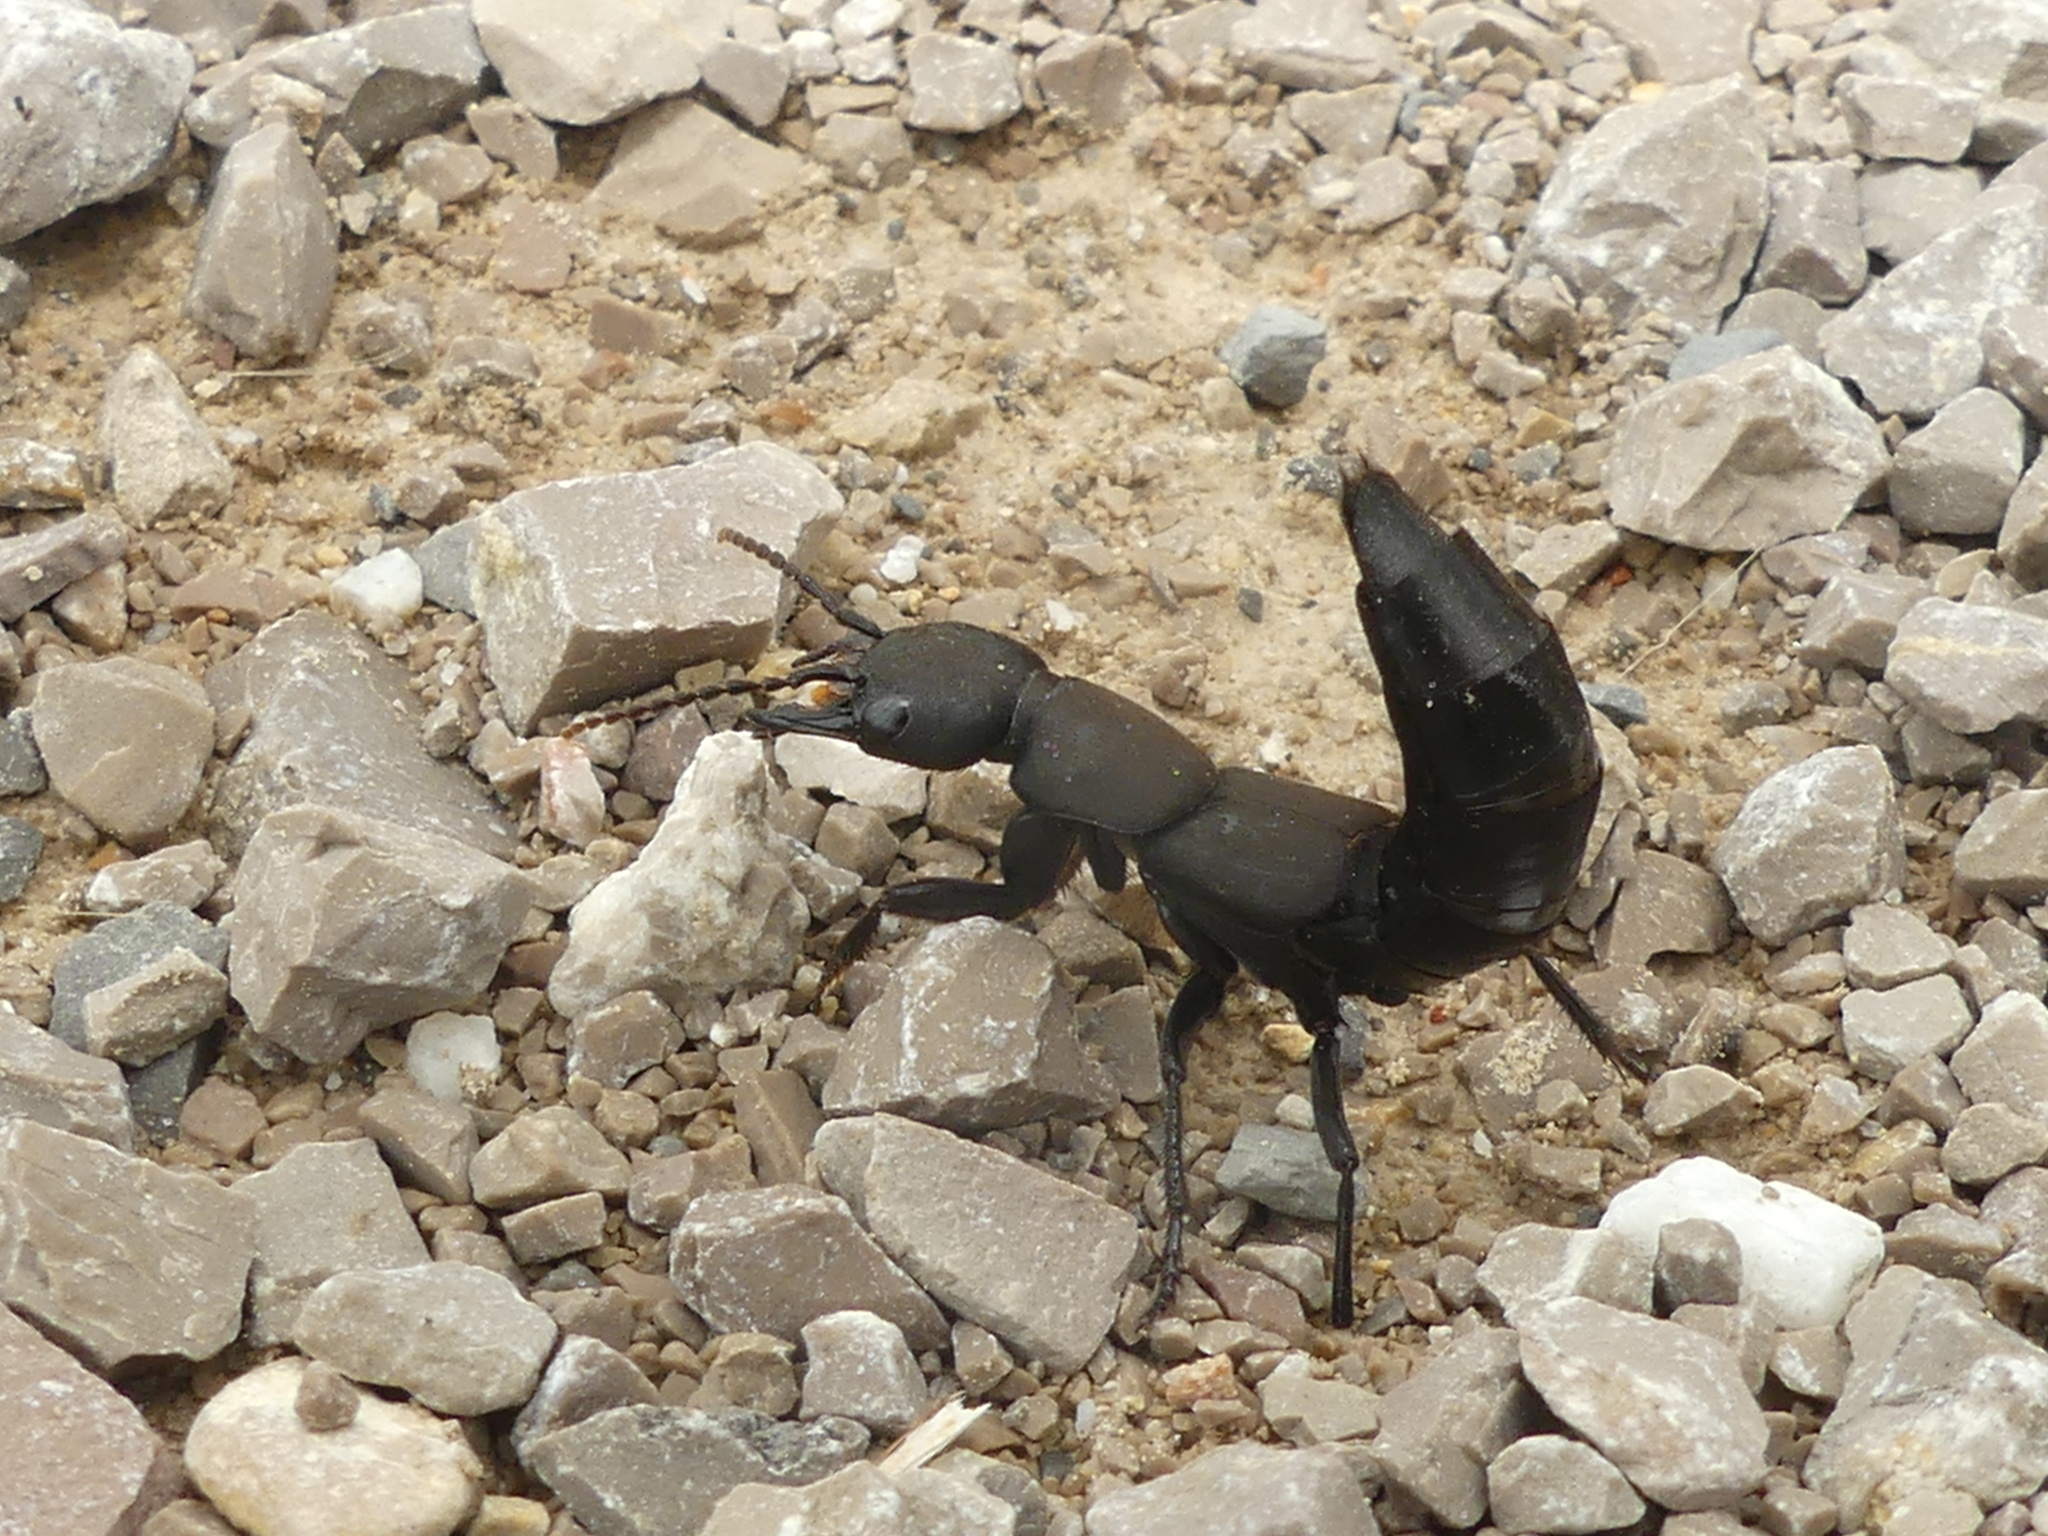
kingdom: Animalia
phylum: Arthropoda
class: Insecta
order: Coleoptera
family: Staphylinidae
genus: Ocypus
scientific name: Ocypus olens
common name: Devil's coach-horse
